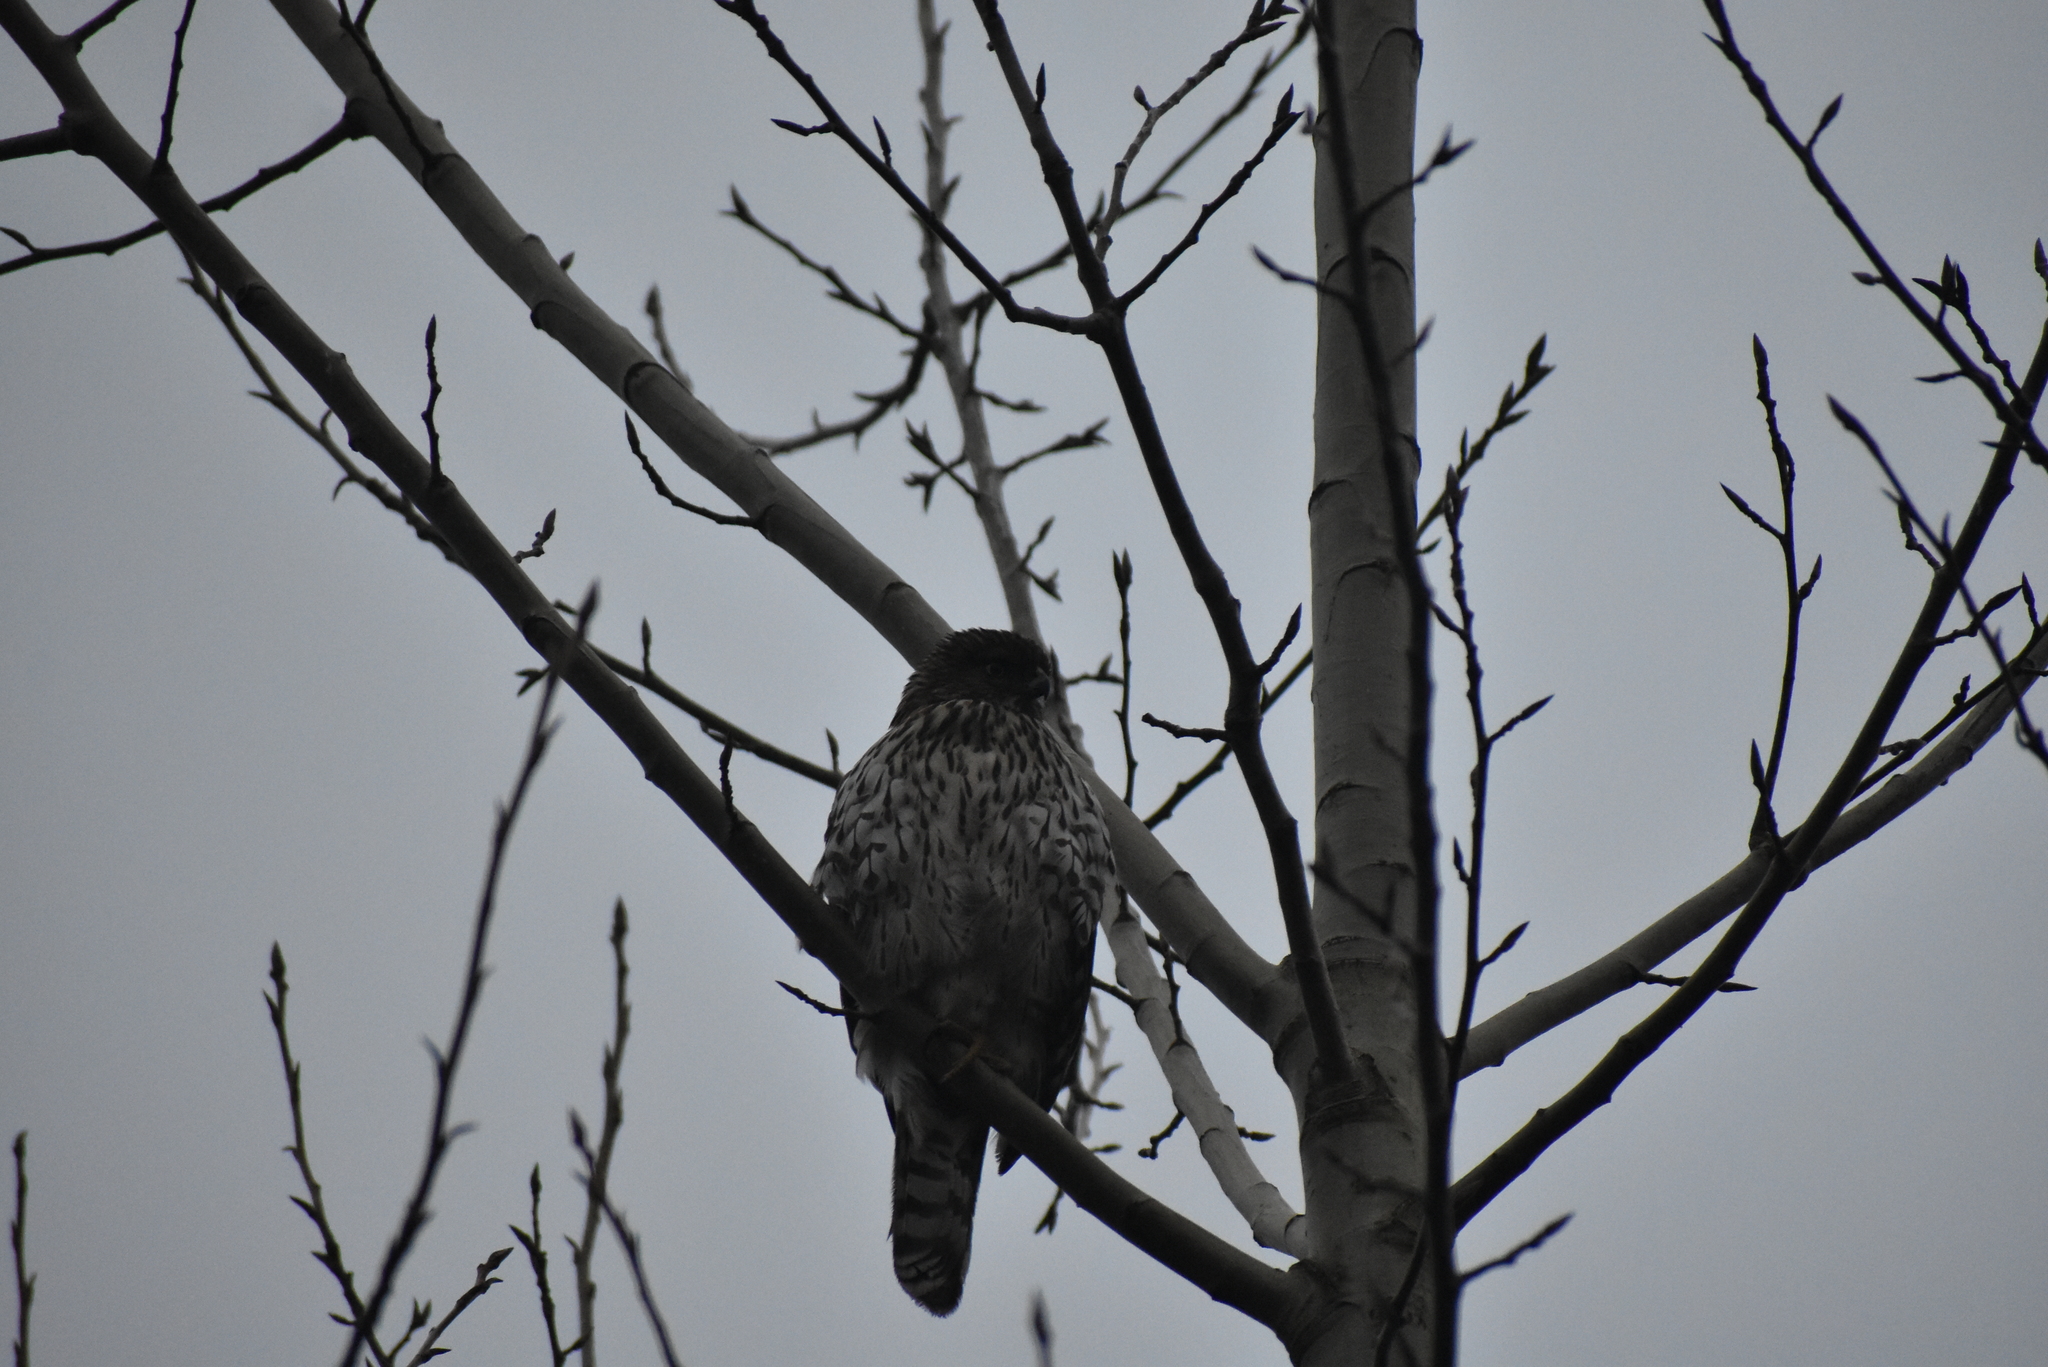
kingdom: Animalia
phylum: Chordata
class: Aves
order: Accipitriformes
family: Accipitridae
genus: Accipiter
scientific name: Accipiter cooperii
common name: Cooper's hawk
